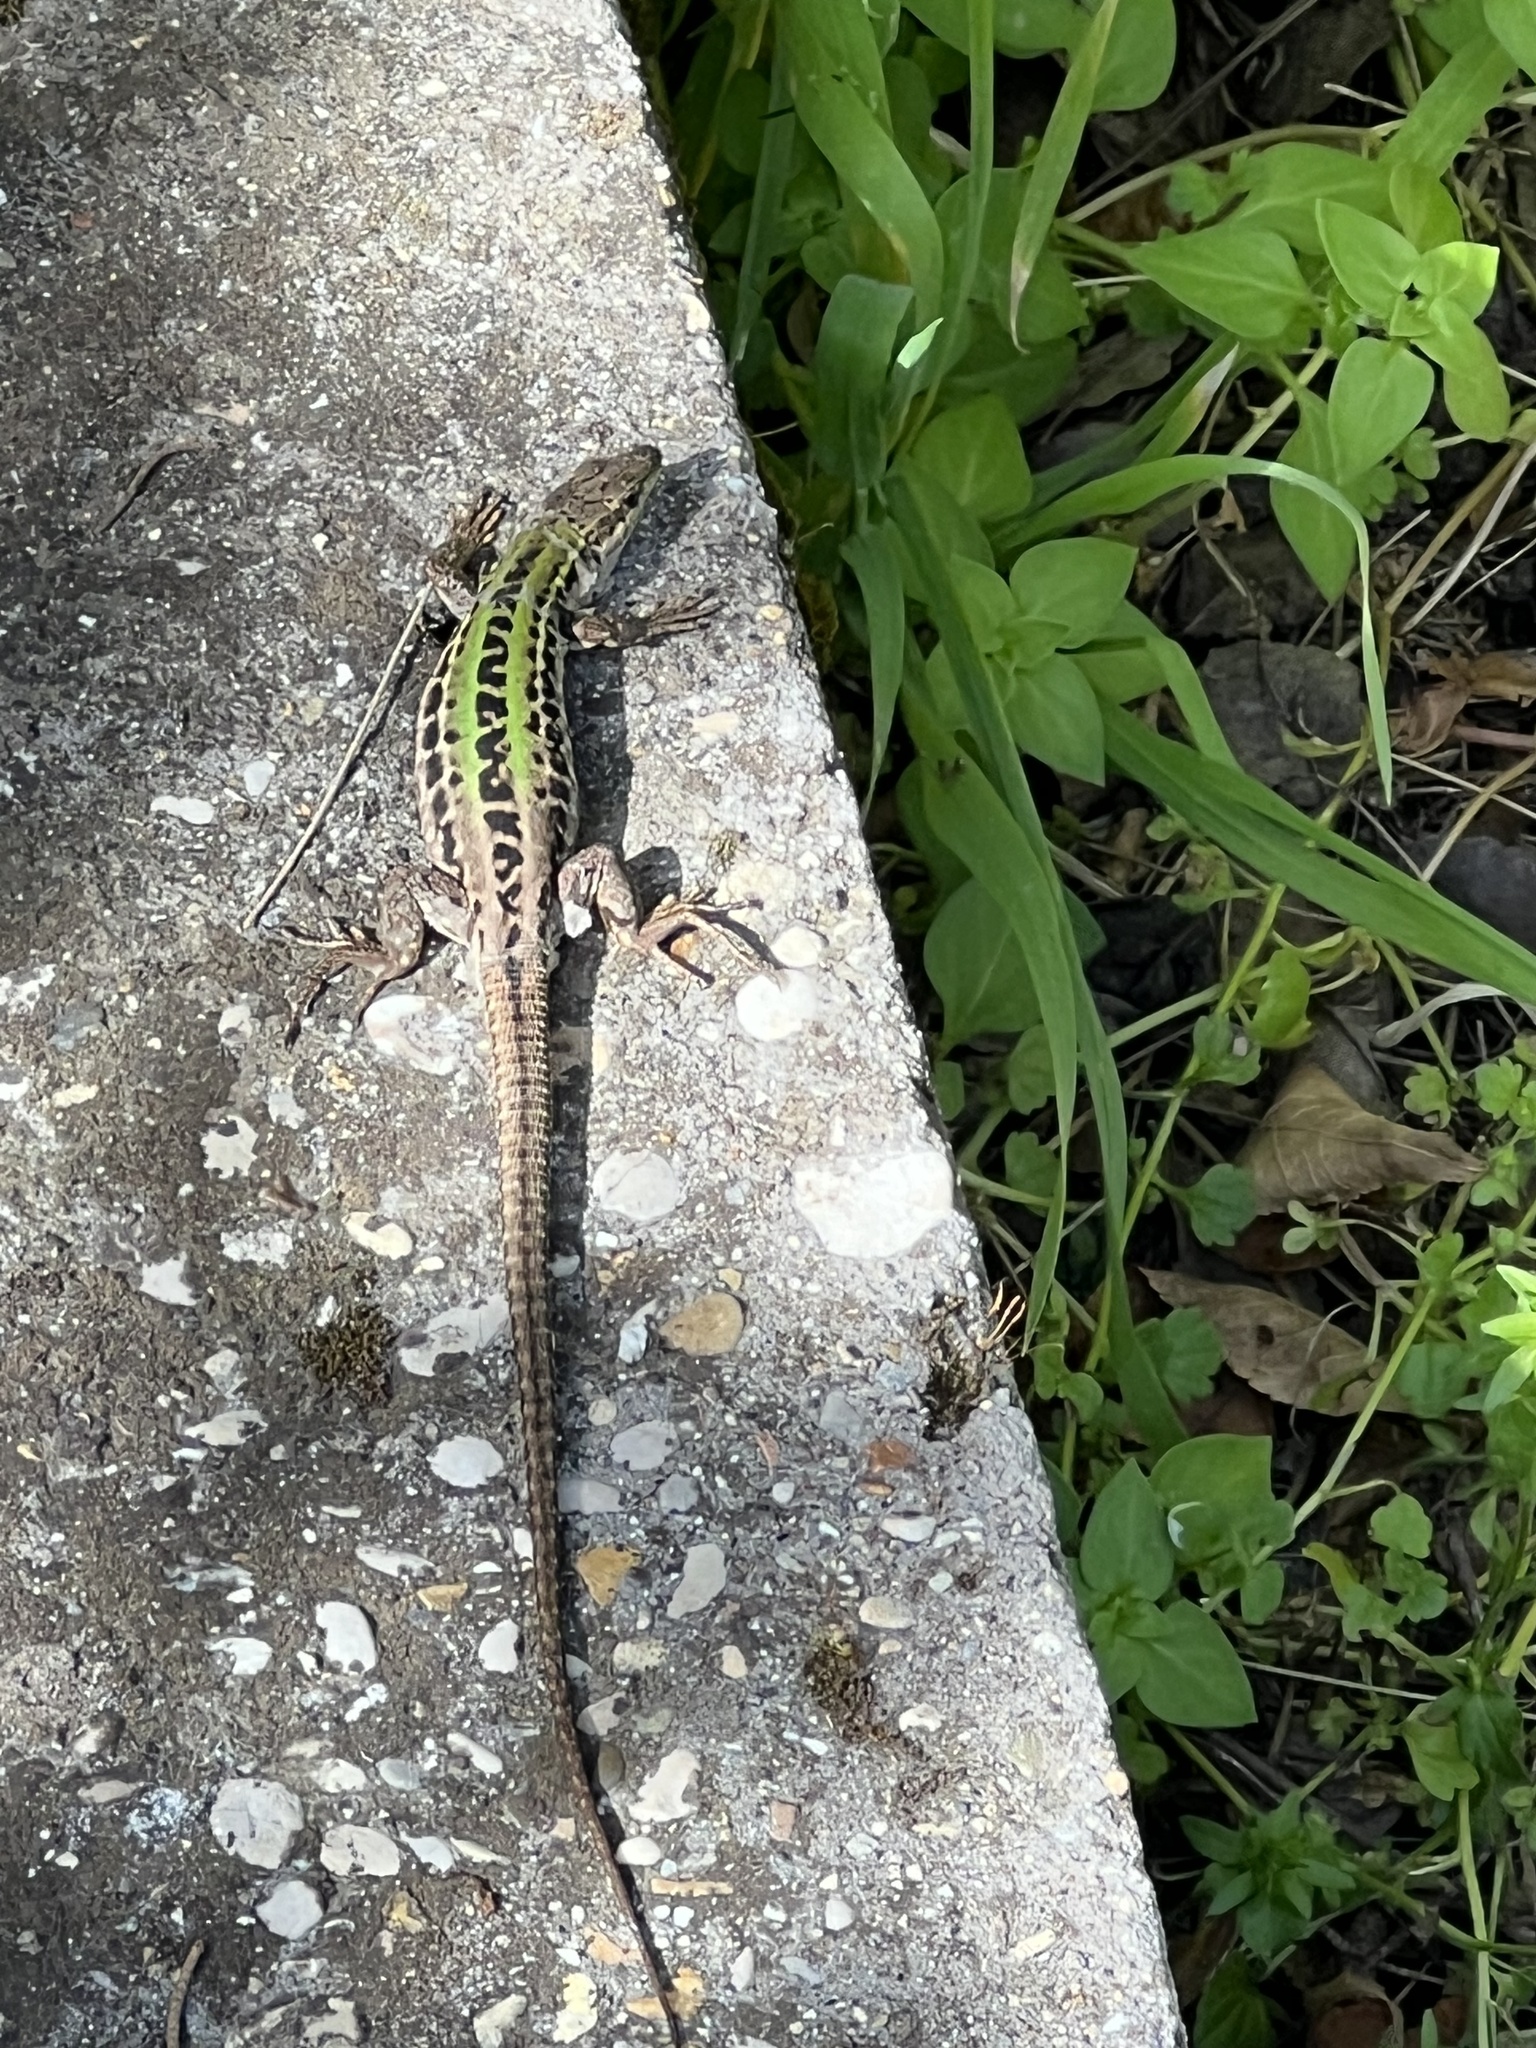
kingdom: Animalia
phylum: Chordata
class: Squamata
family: Lacertidae
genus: Podarcis
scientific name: Podarcis siculus
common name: Italian wall lizard
